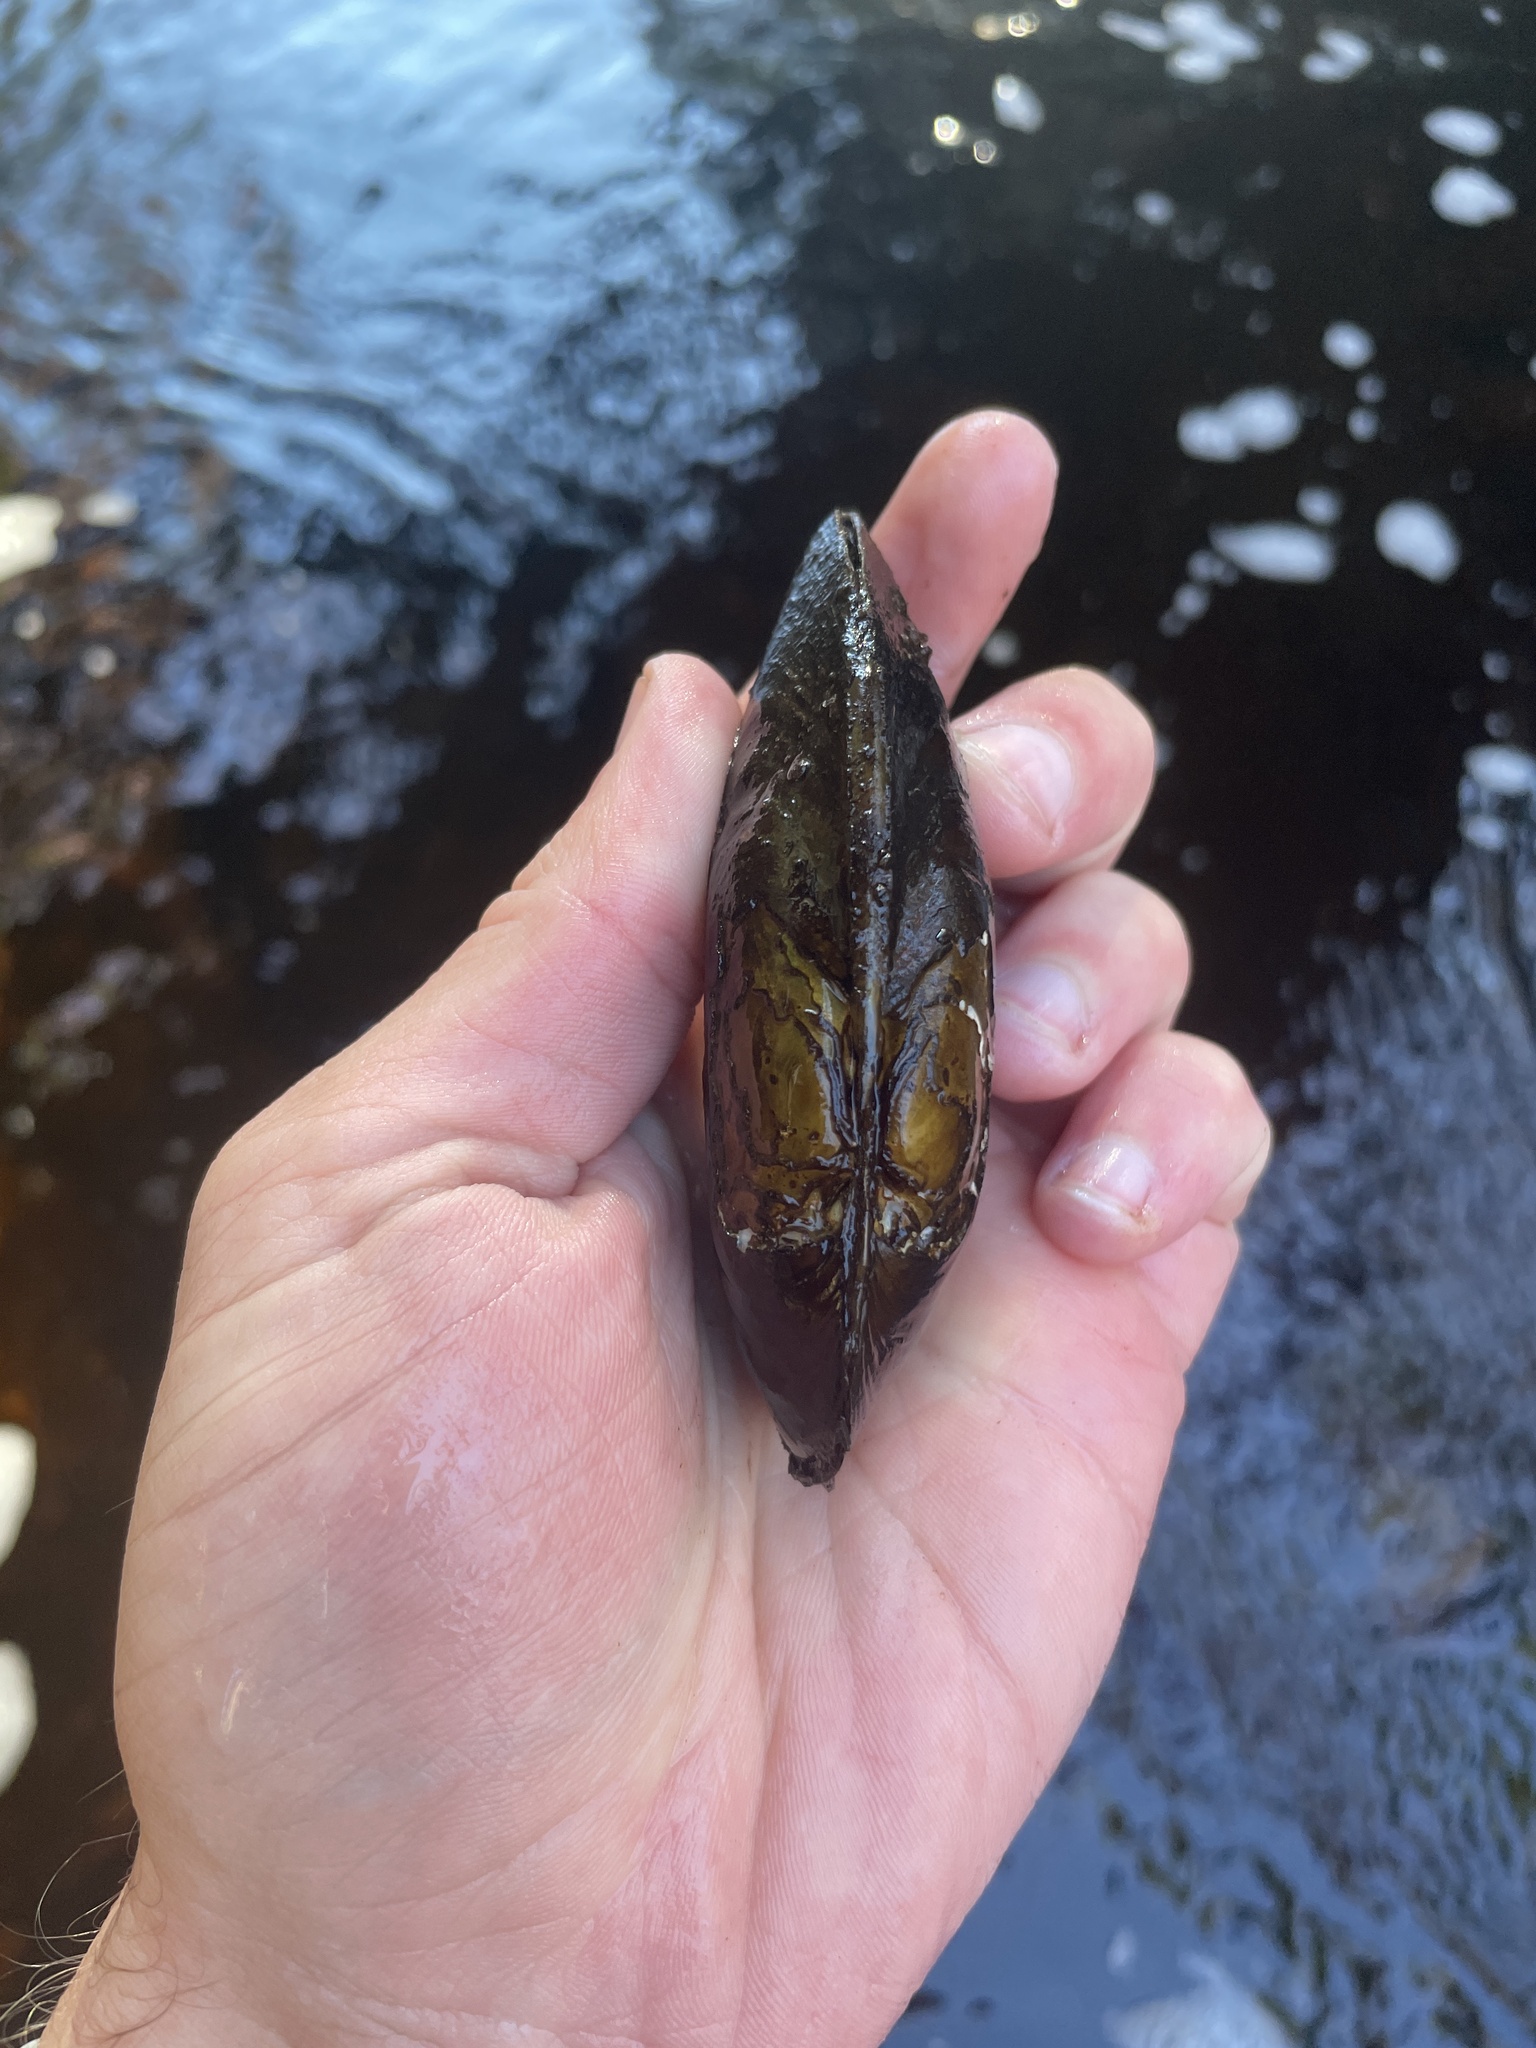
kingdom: Animalia
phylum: Mollusca
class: Bivalvia
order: Unionida
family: Margaritiferidae
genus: Margaritifera
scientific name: Margaritifera margaritifera
